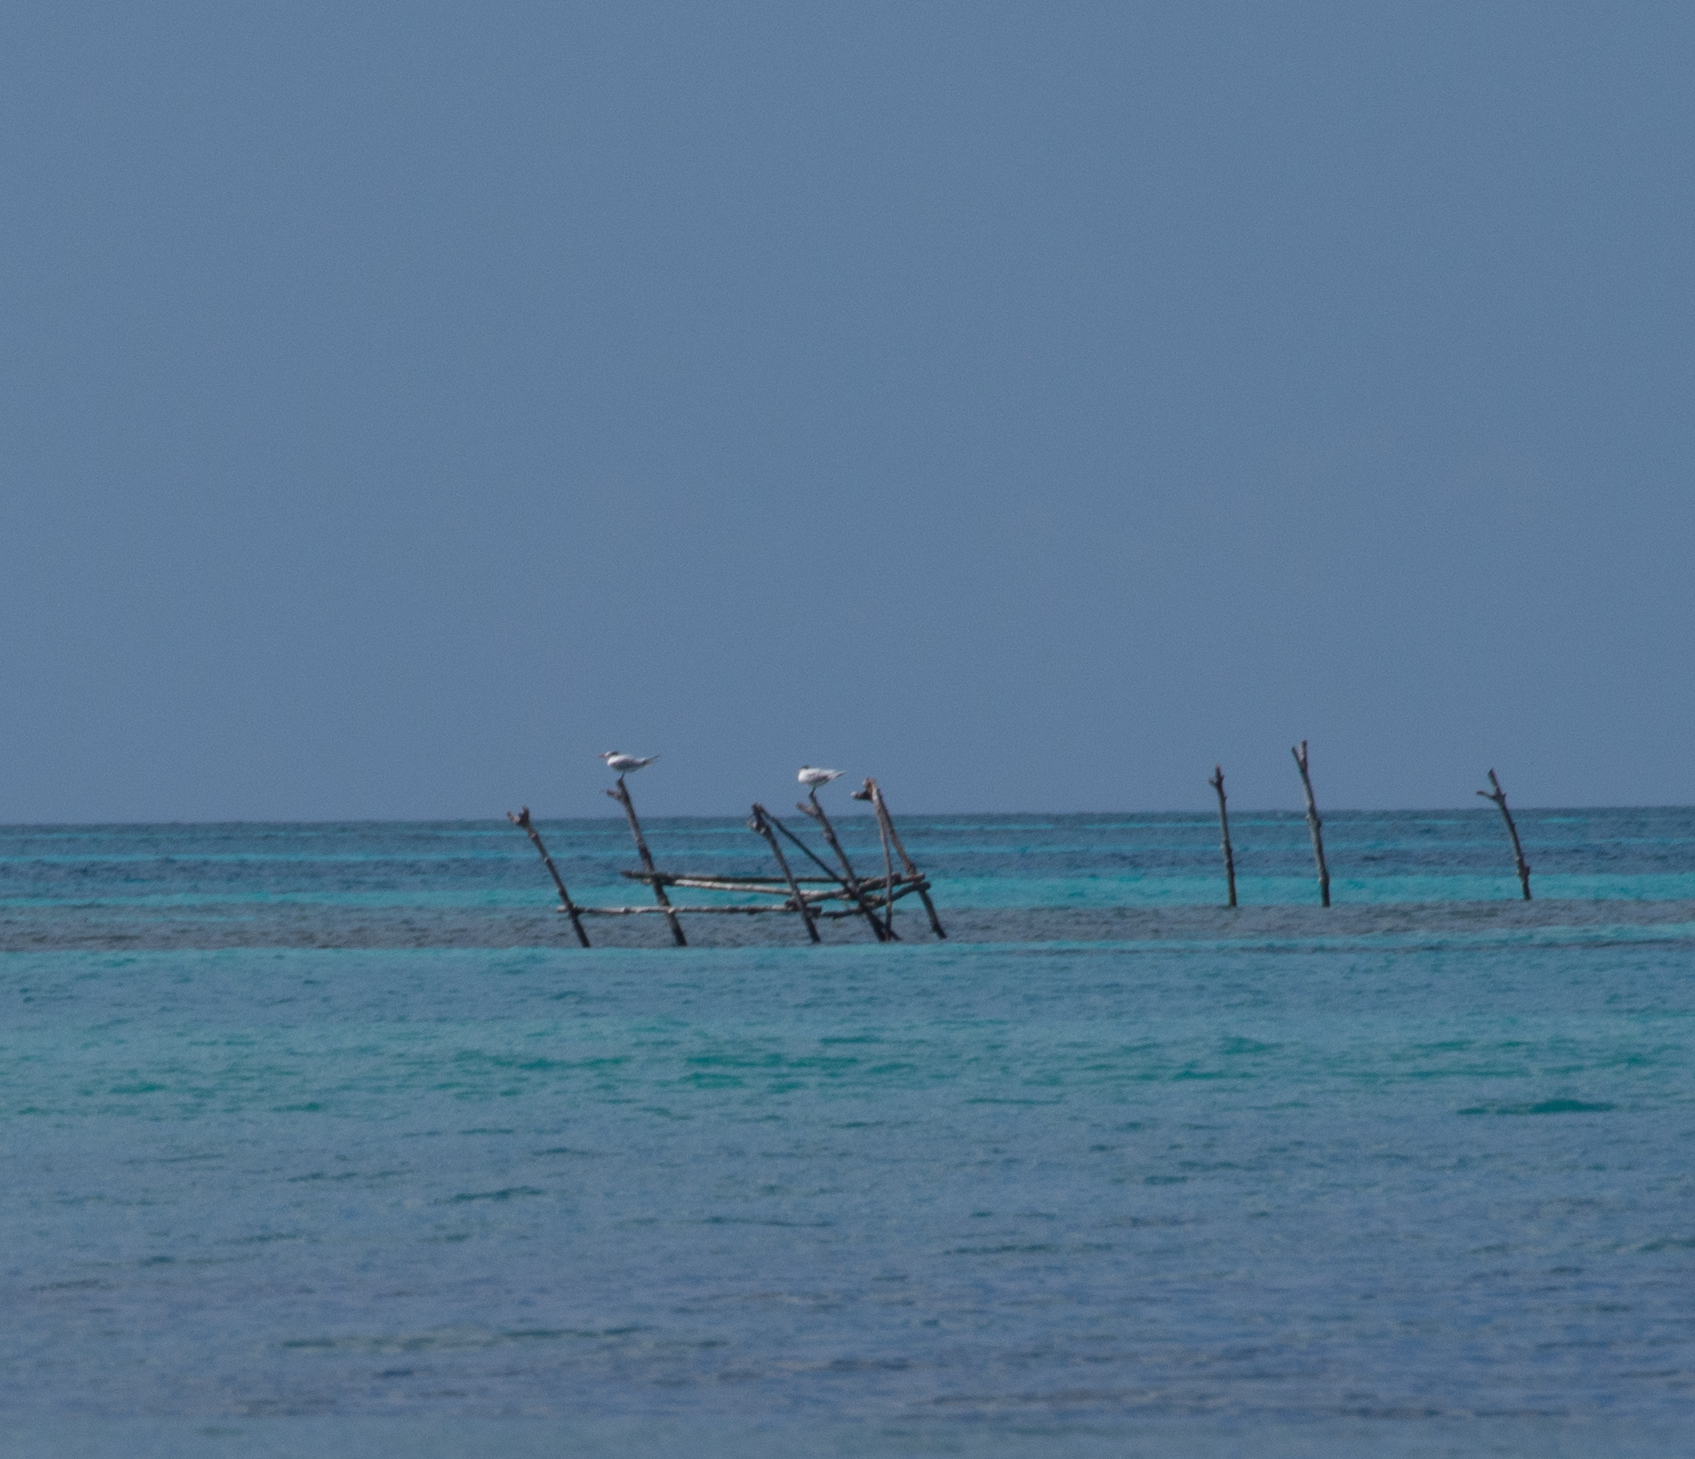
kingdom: Animalia
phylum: Chordata
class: Aves
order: Charadriiformes
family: Laridae
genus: Thalasseus
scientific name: Thalasseus maximus
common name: Royal tern
